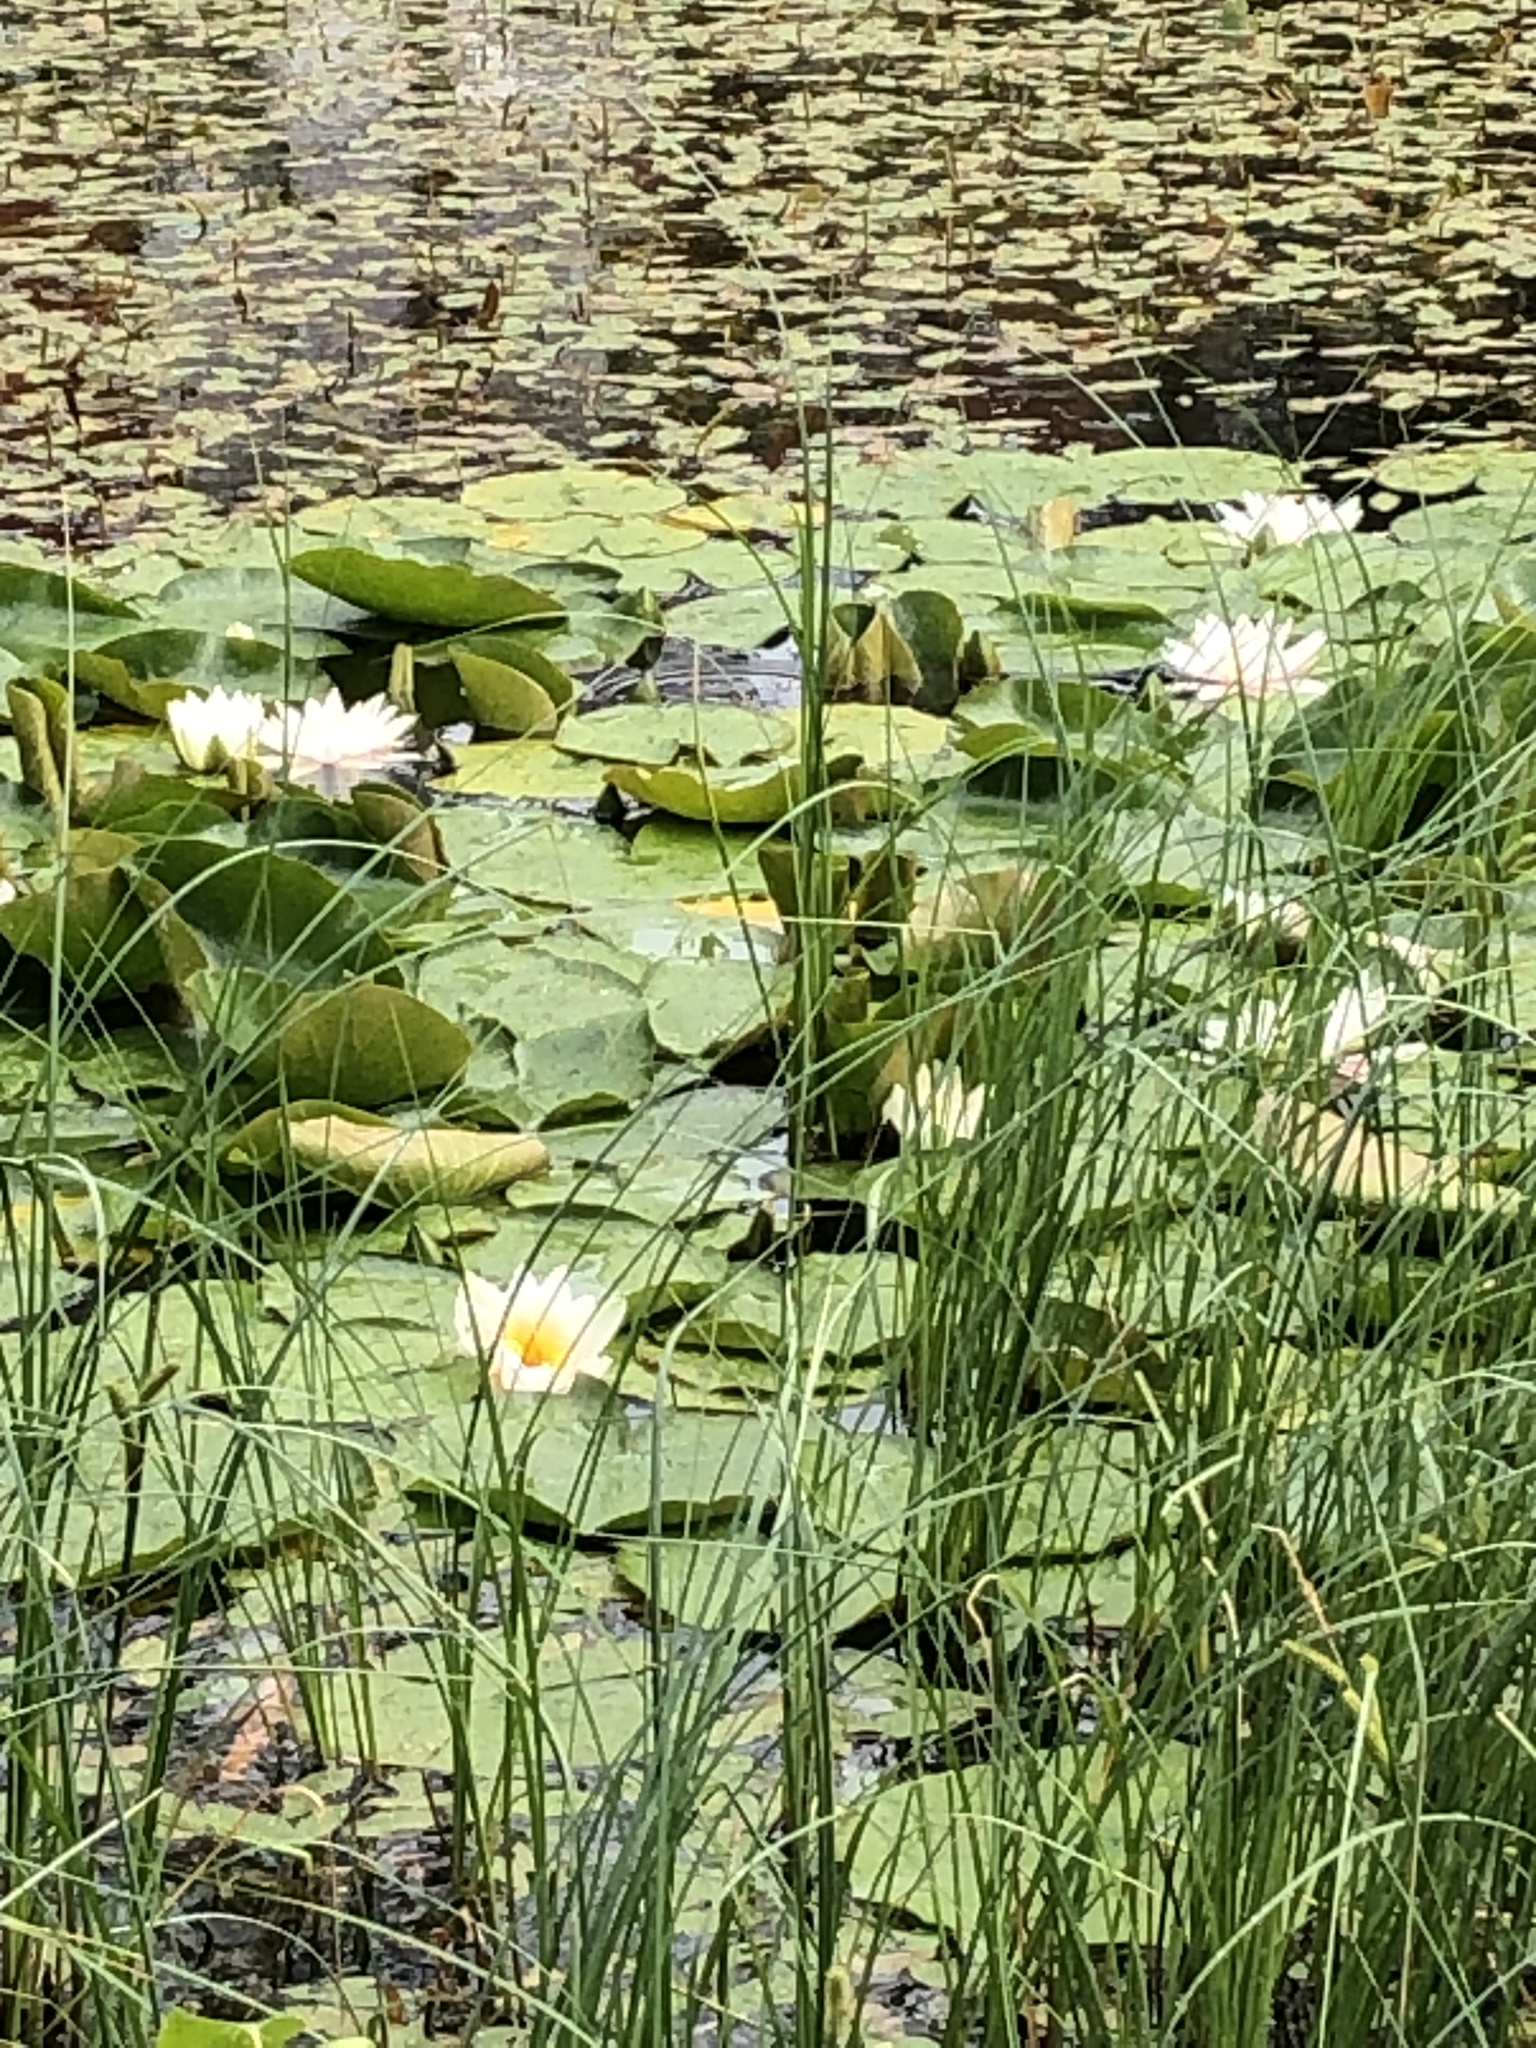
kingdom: Plantae
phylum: Tracheophyta
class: Magnoliopsida
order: Nymphaeales
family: Nymphaeaceae
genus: Nymphaea
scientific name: Nymphaea alba
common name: White water-lily
